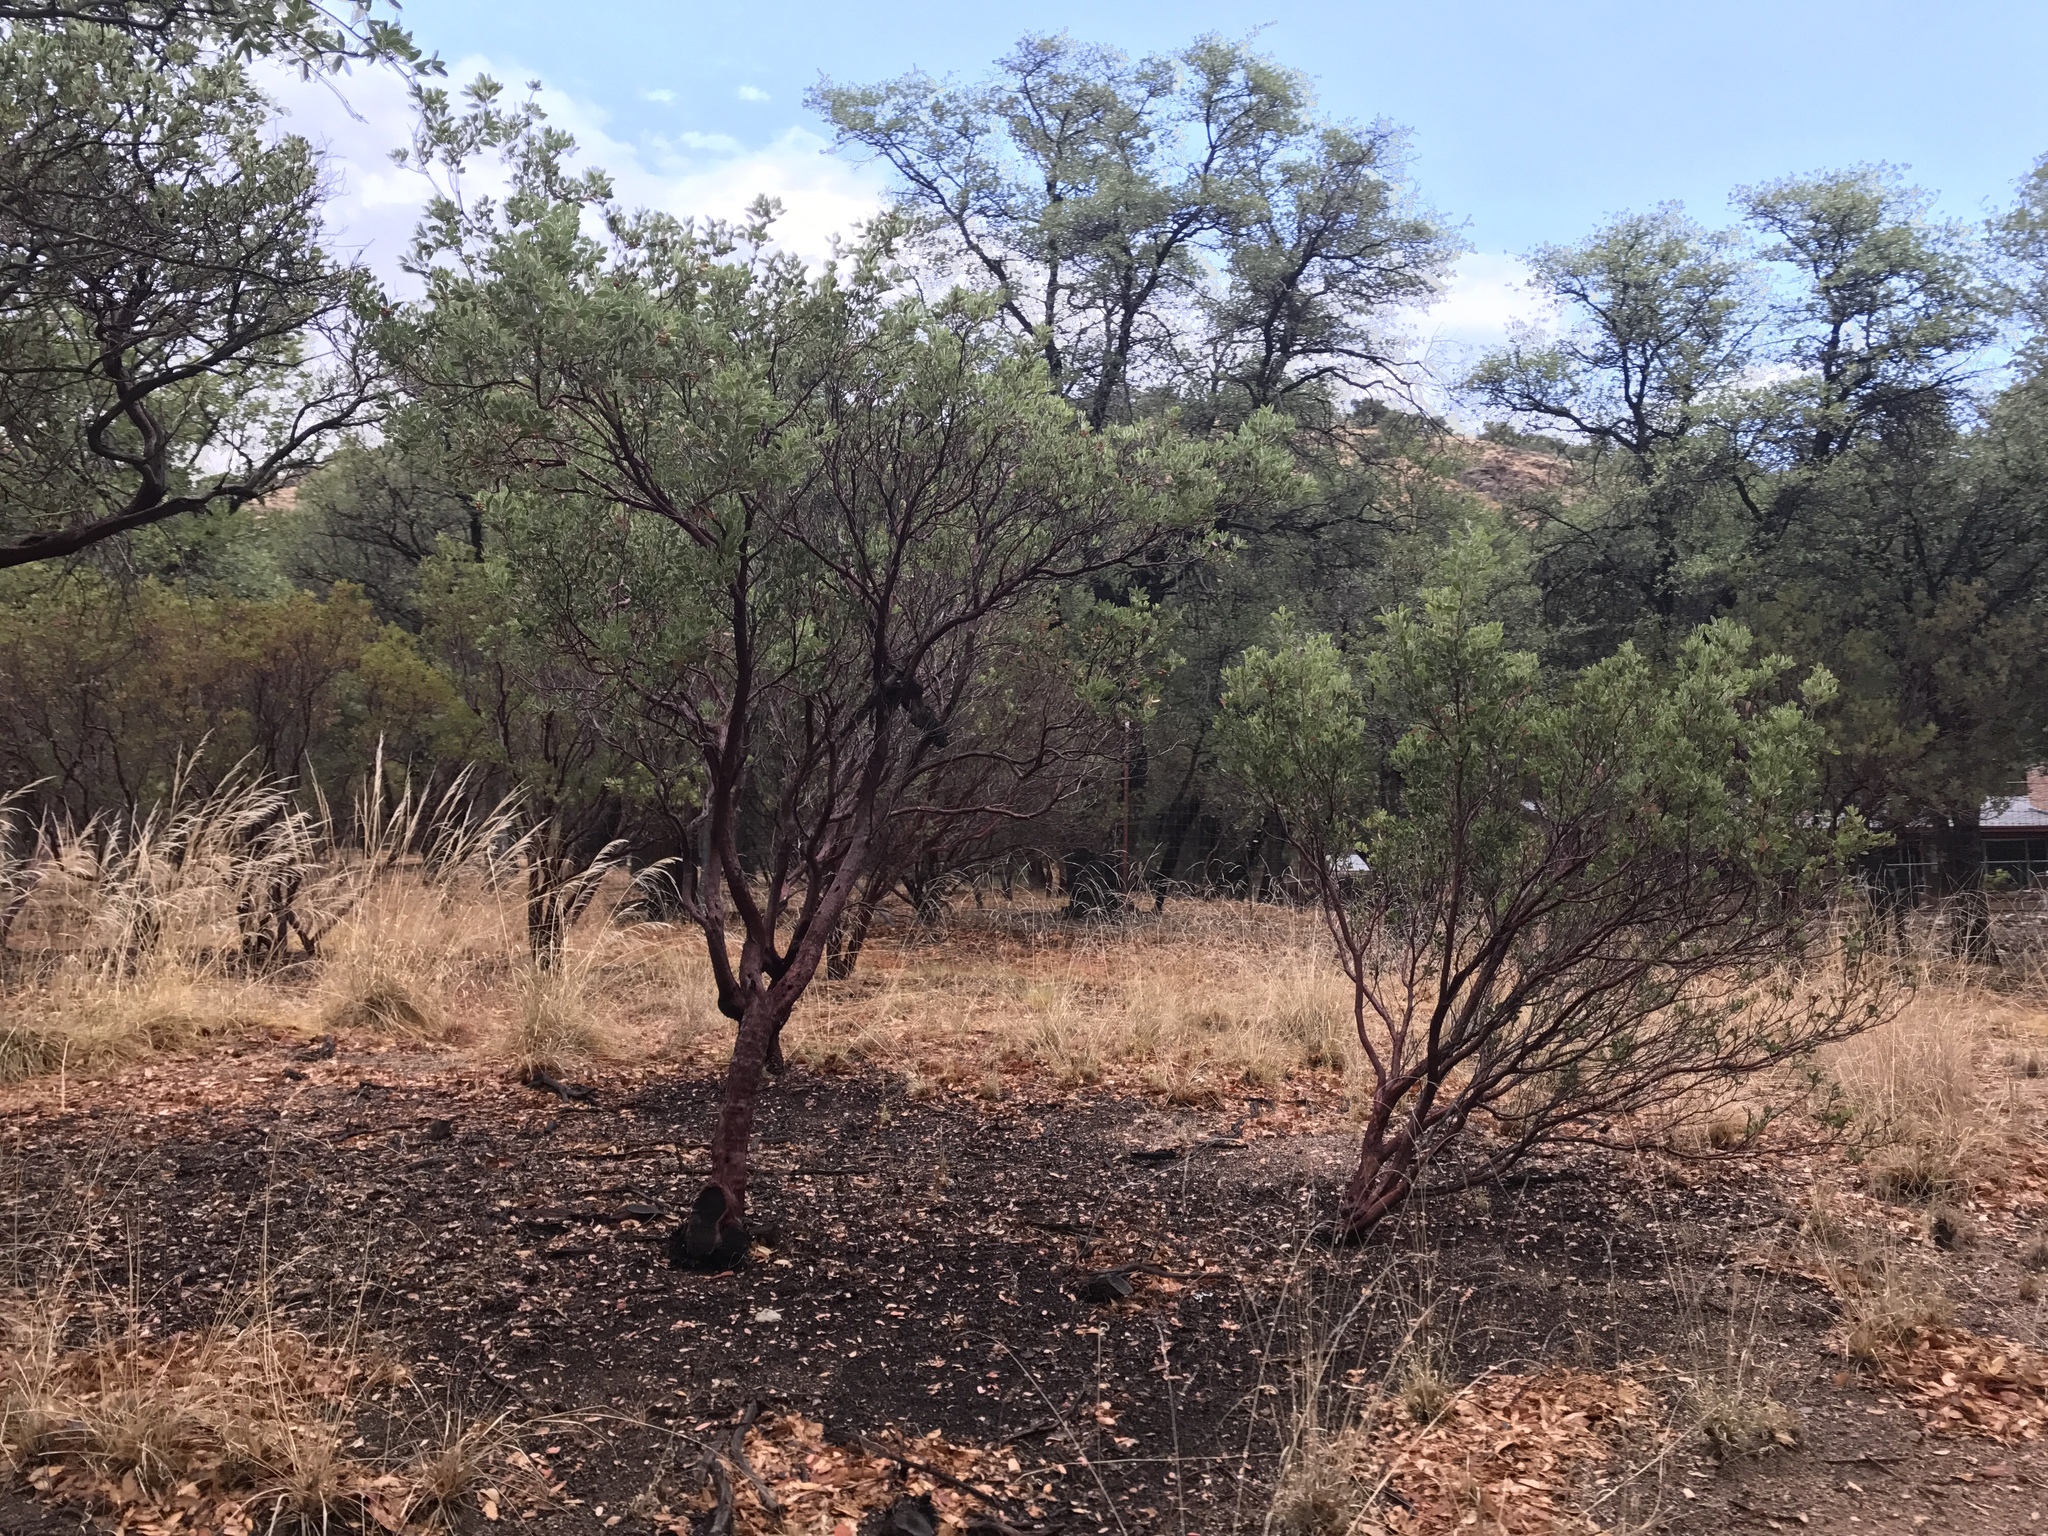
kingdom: Plantae
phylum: Tracheophyta
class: Magnoliopsida
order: Ericales
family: Ericaceae
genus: Arctostaphylos
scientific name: Arctostaphylos pungens
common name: Mexican manzanita
